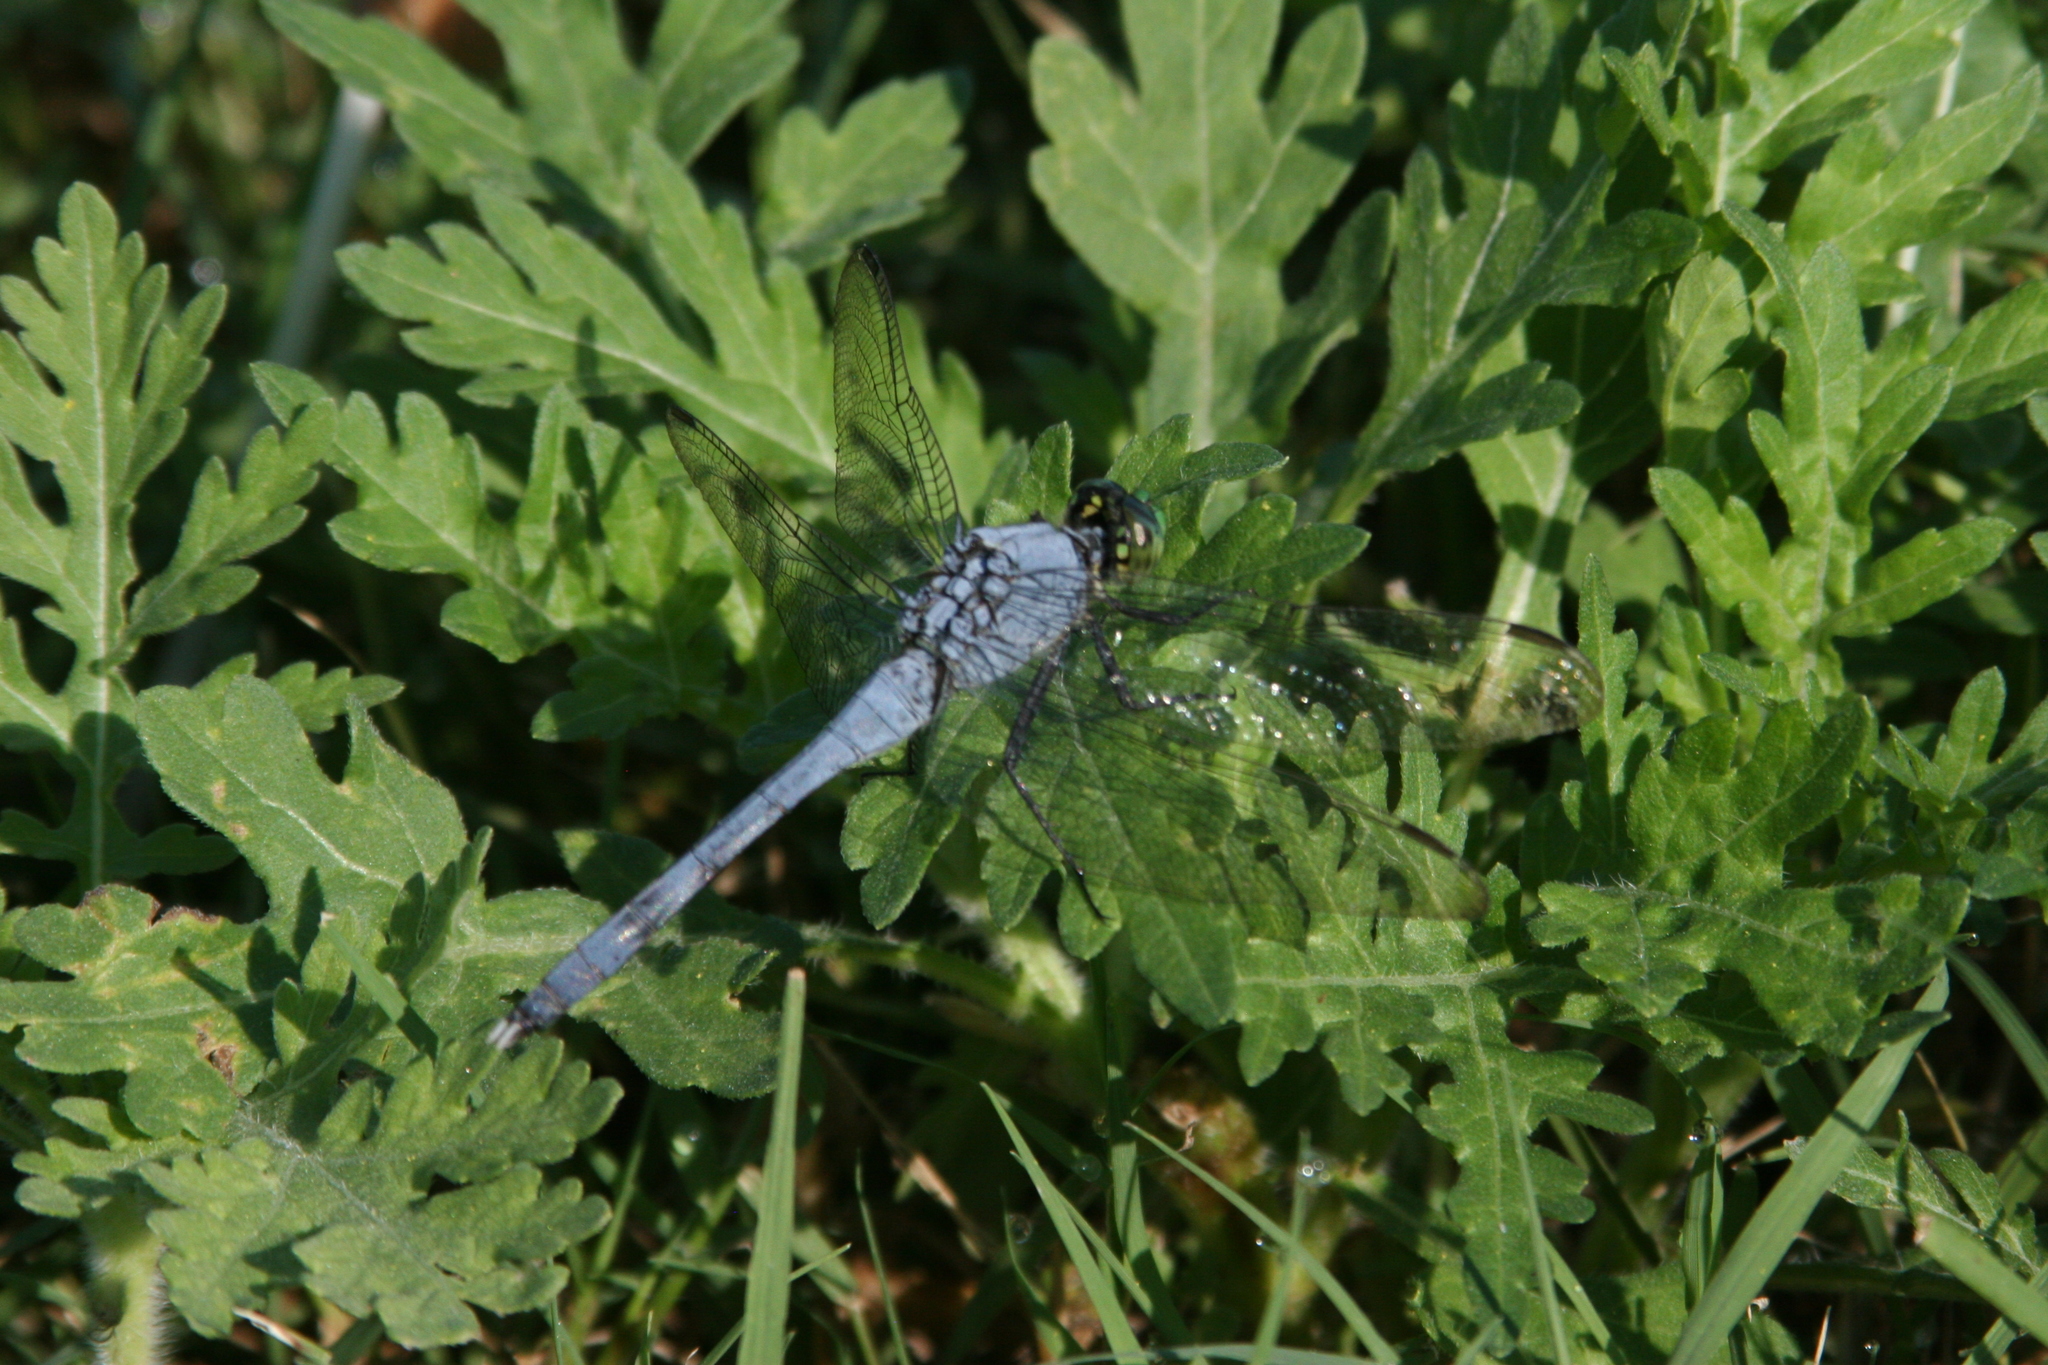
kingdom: Animalia
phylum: Arthropoda
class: Insecta
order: Odonata
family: Libellulidae
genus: Erythemis
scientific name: Erythemis simplicicollis
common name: Eastern pondhawk
